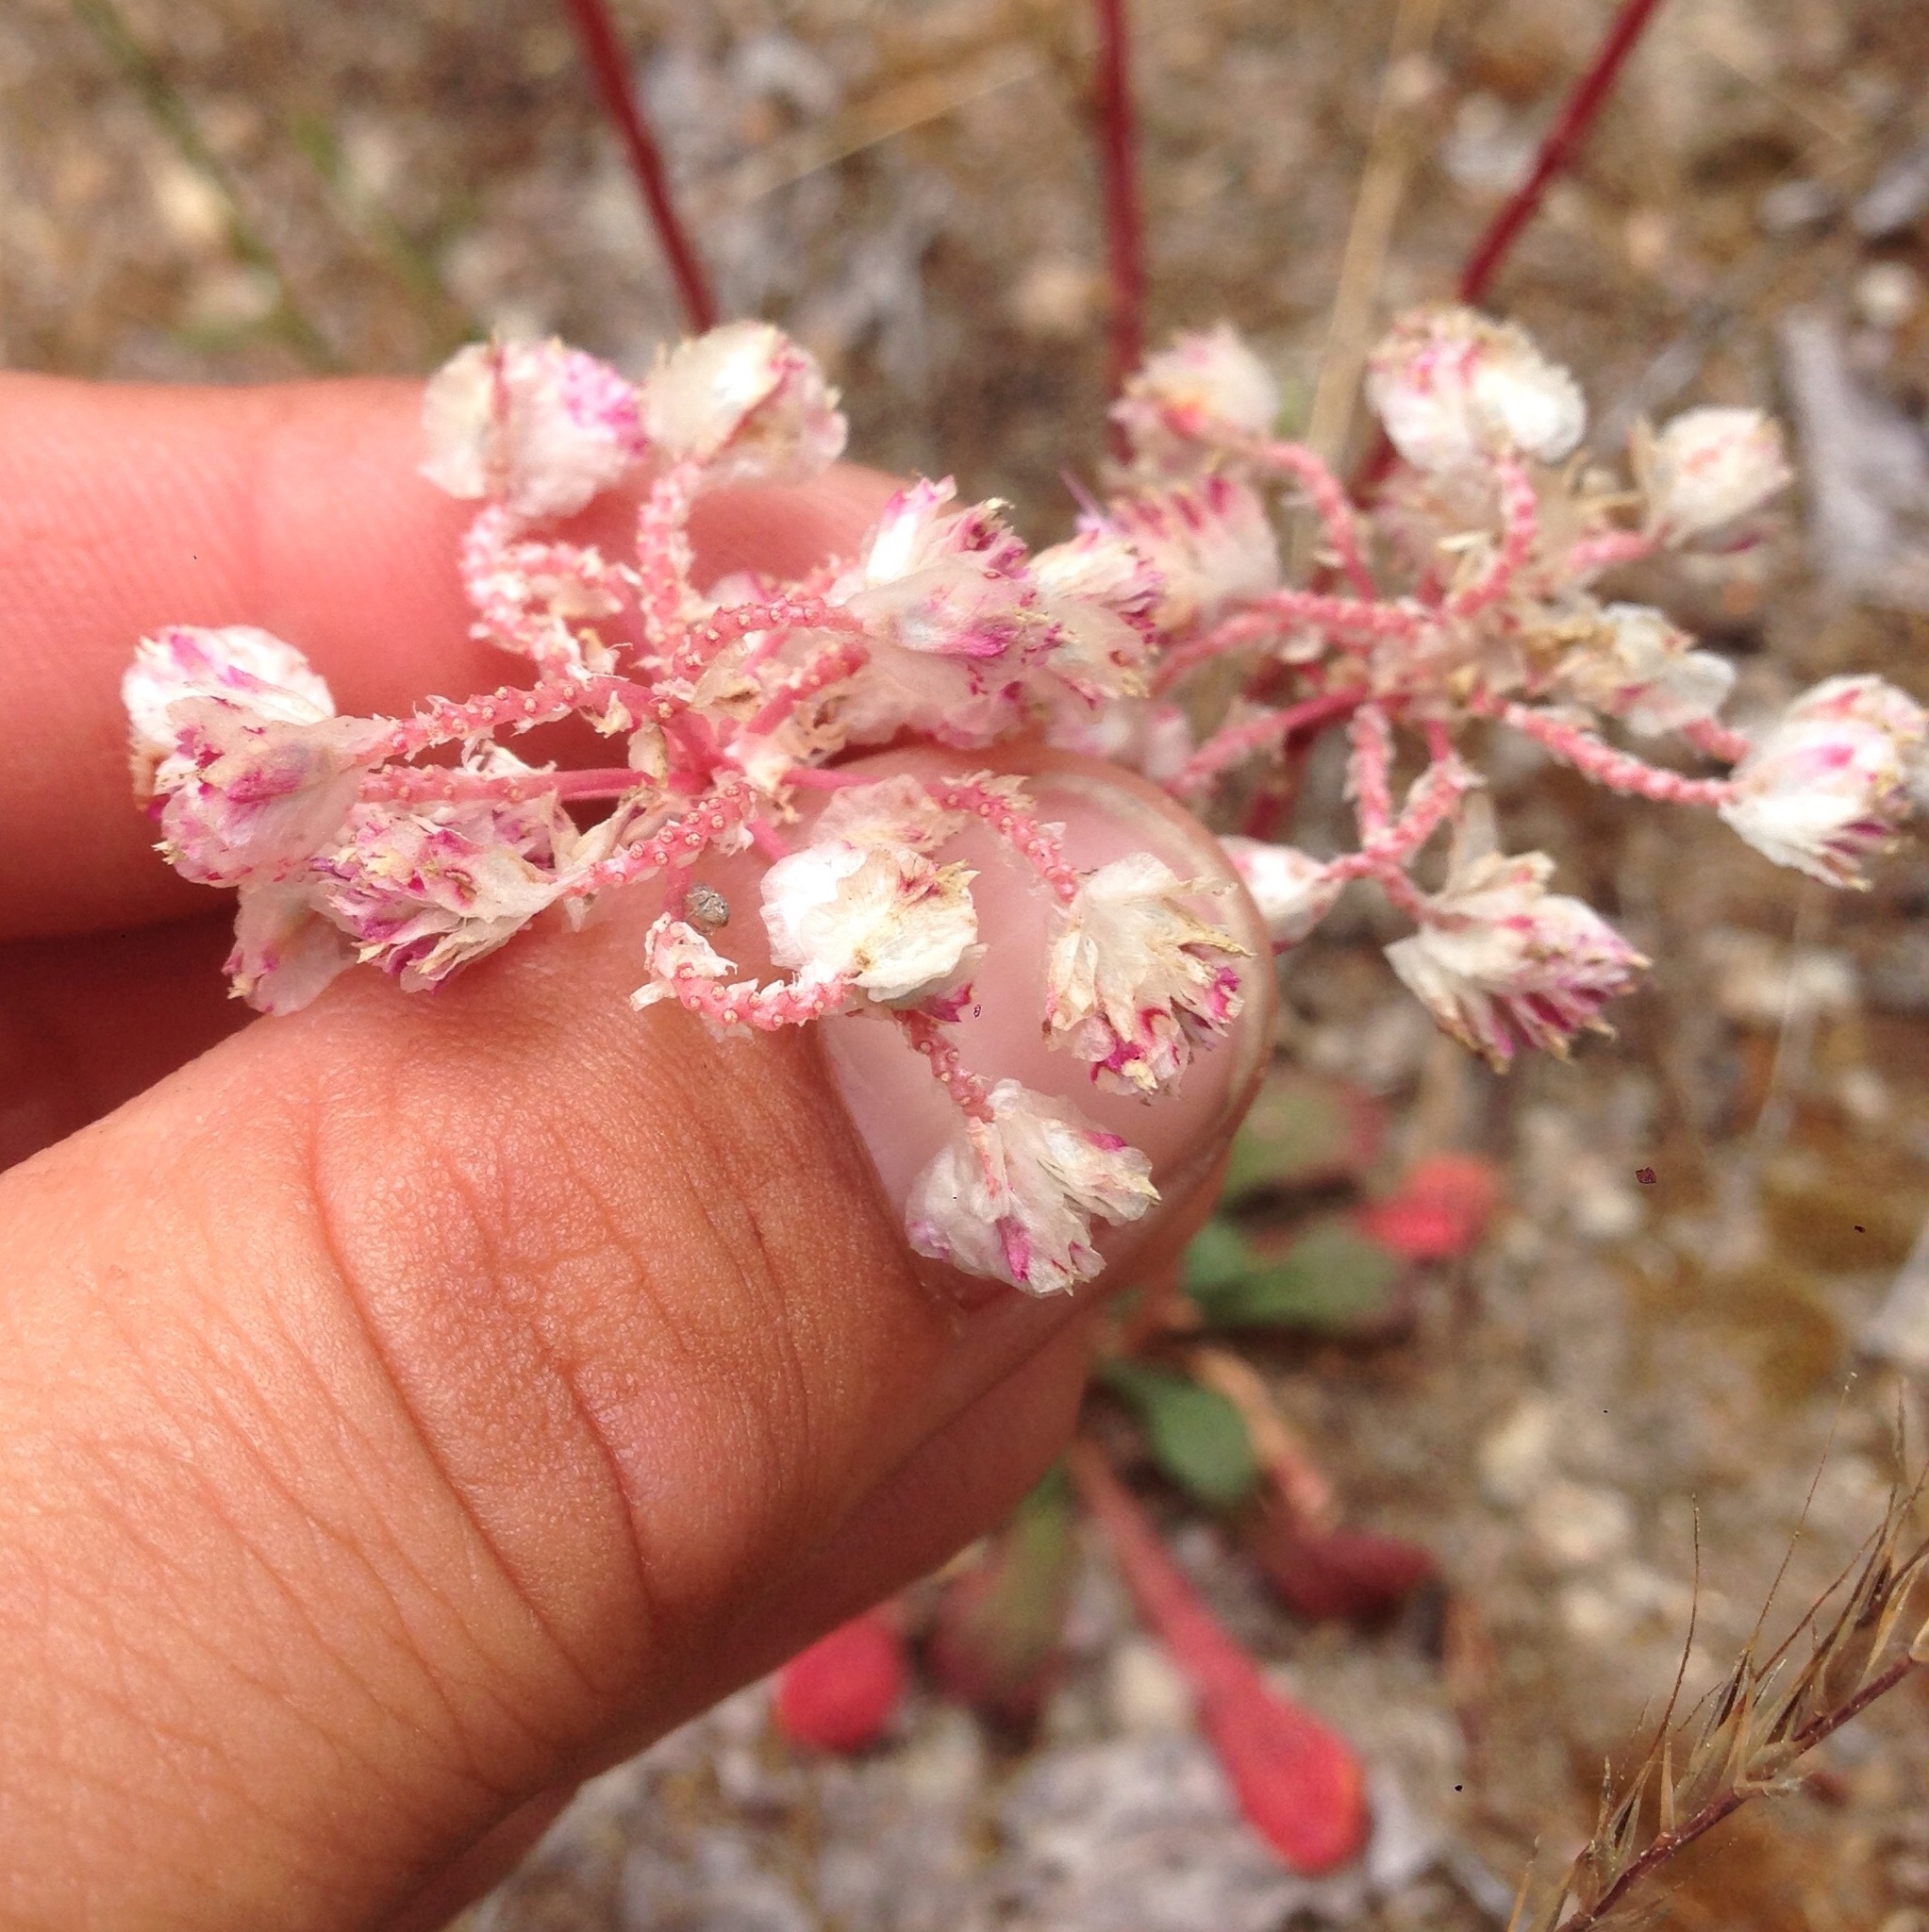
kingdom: Plantae
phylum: Tracheophyta
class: Magnoliopsida
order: Caryophyllales
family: Montiaceae
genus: Calyptridium
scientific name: Calyptridium monospermum
